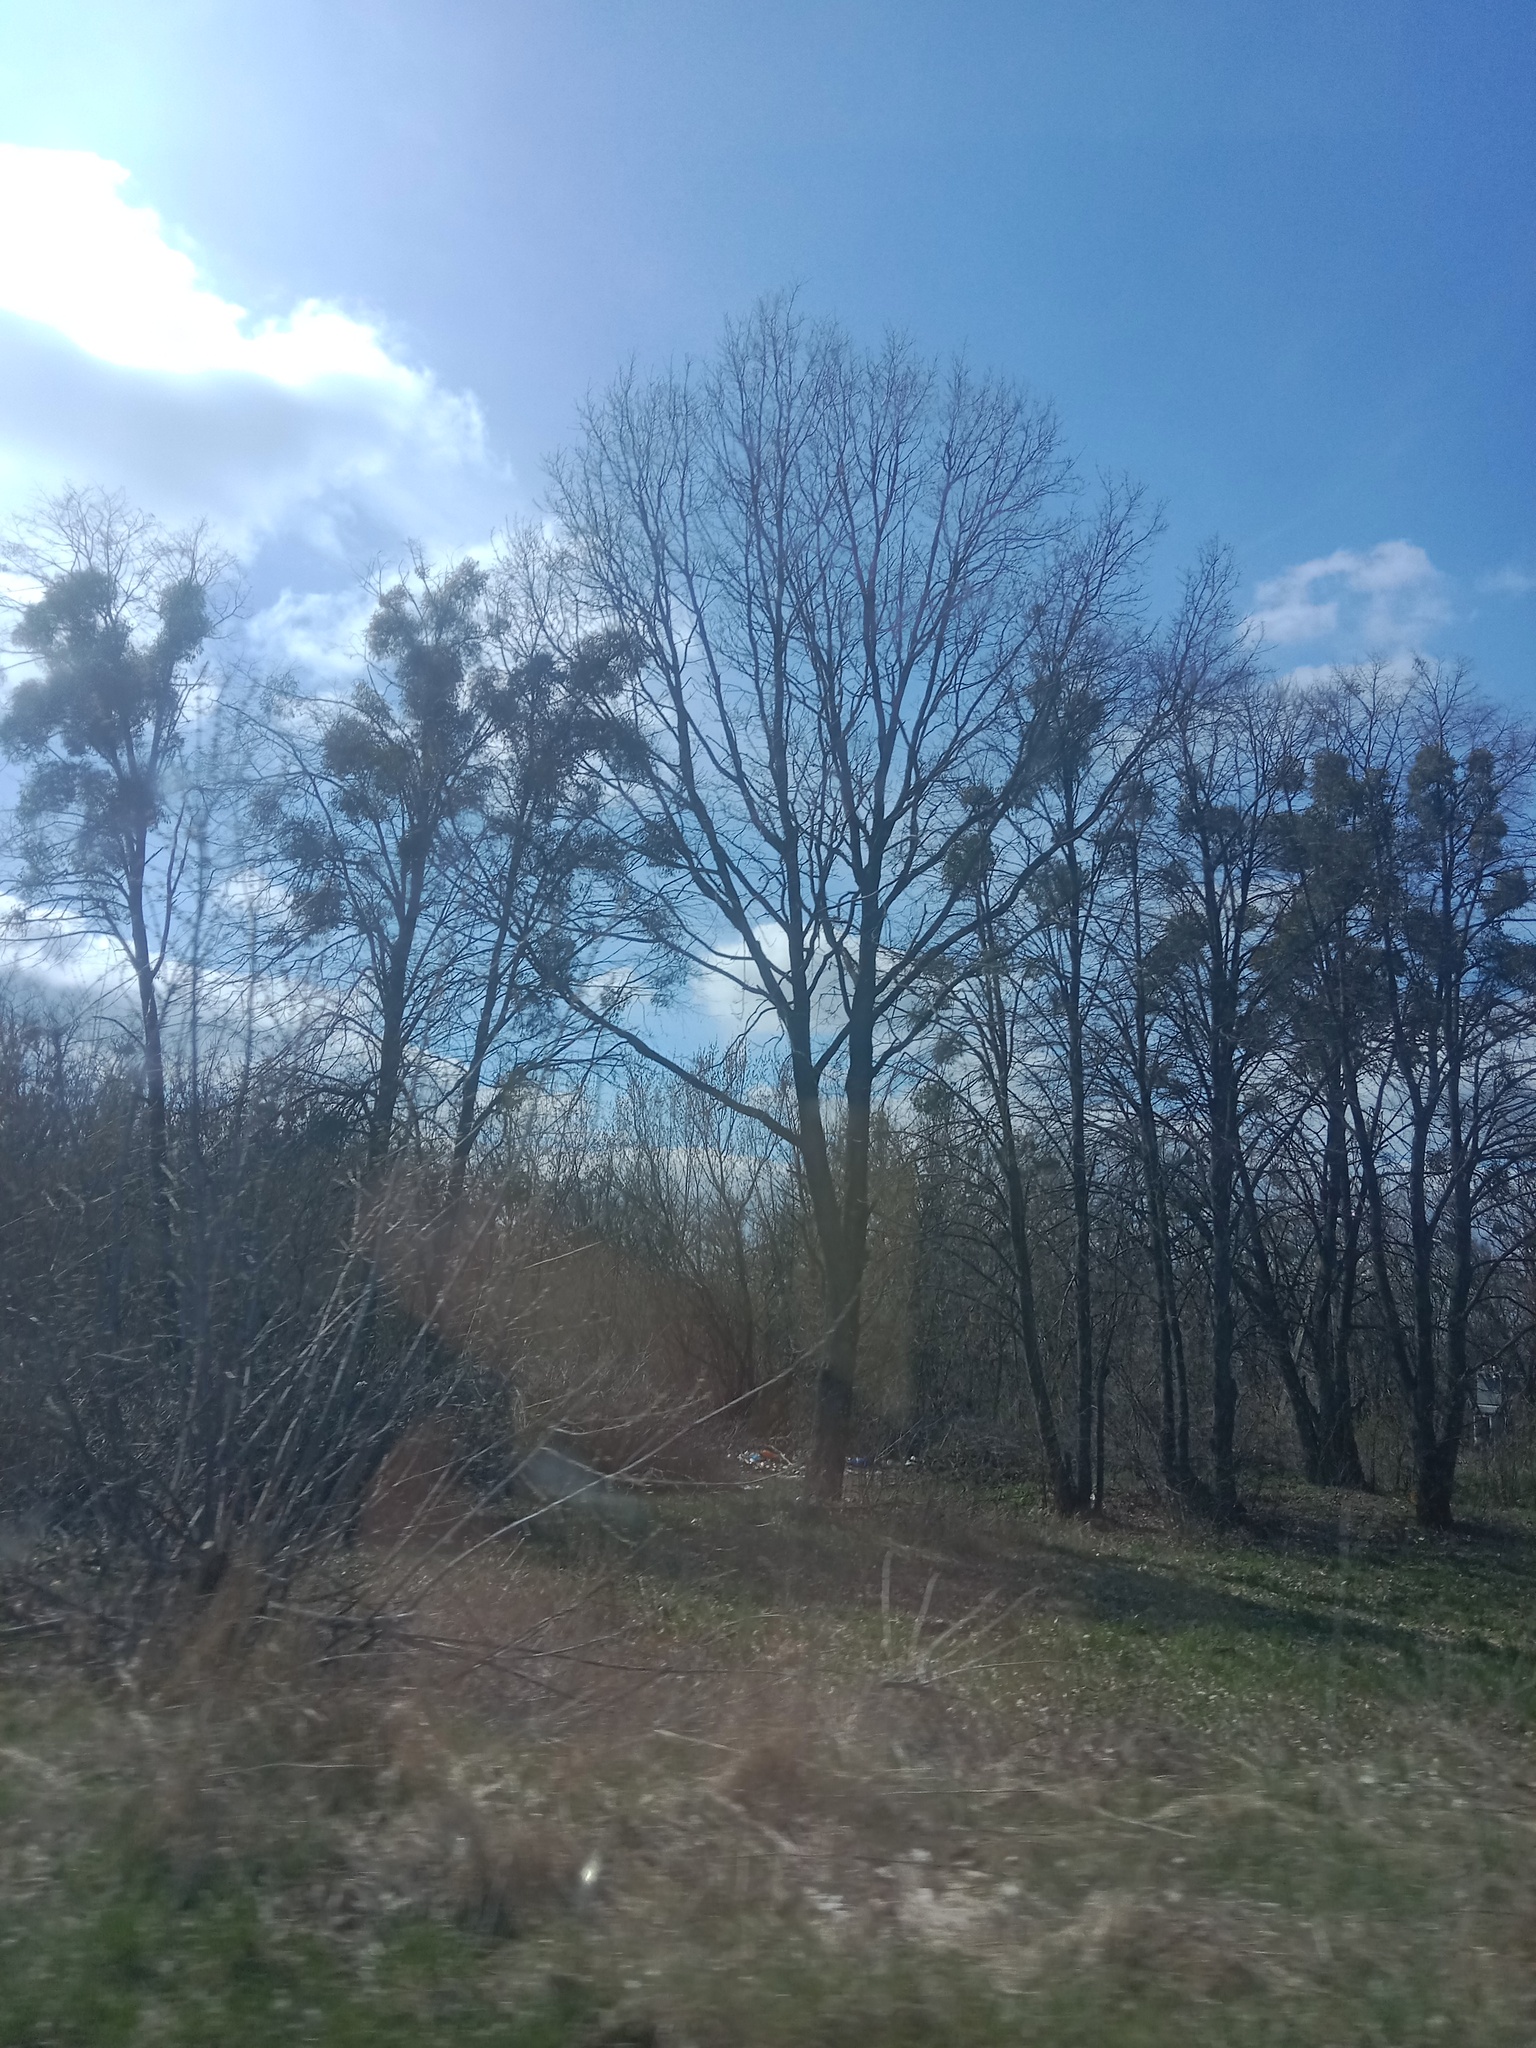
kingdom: Plantae
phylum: Tracheophyta
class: Magnoliopsida
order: Santalales
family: Viscaceae
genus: Viscum
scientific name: Viscum album
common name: Mistletoe
